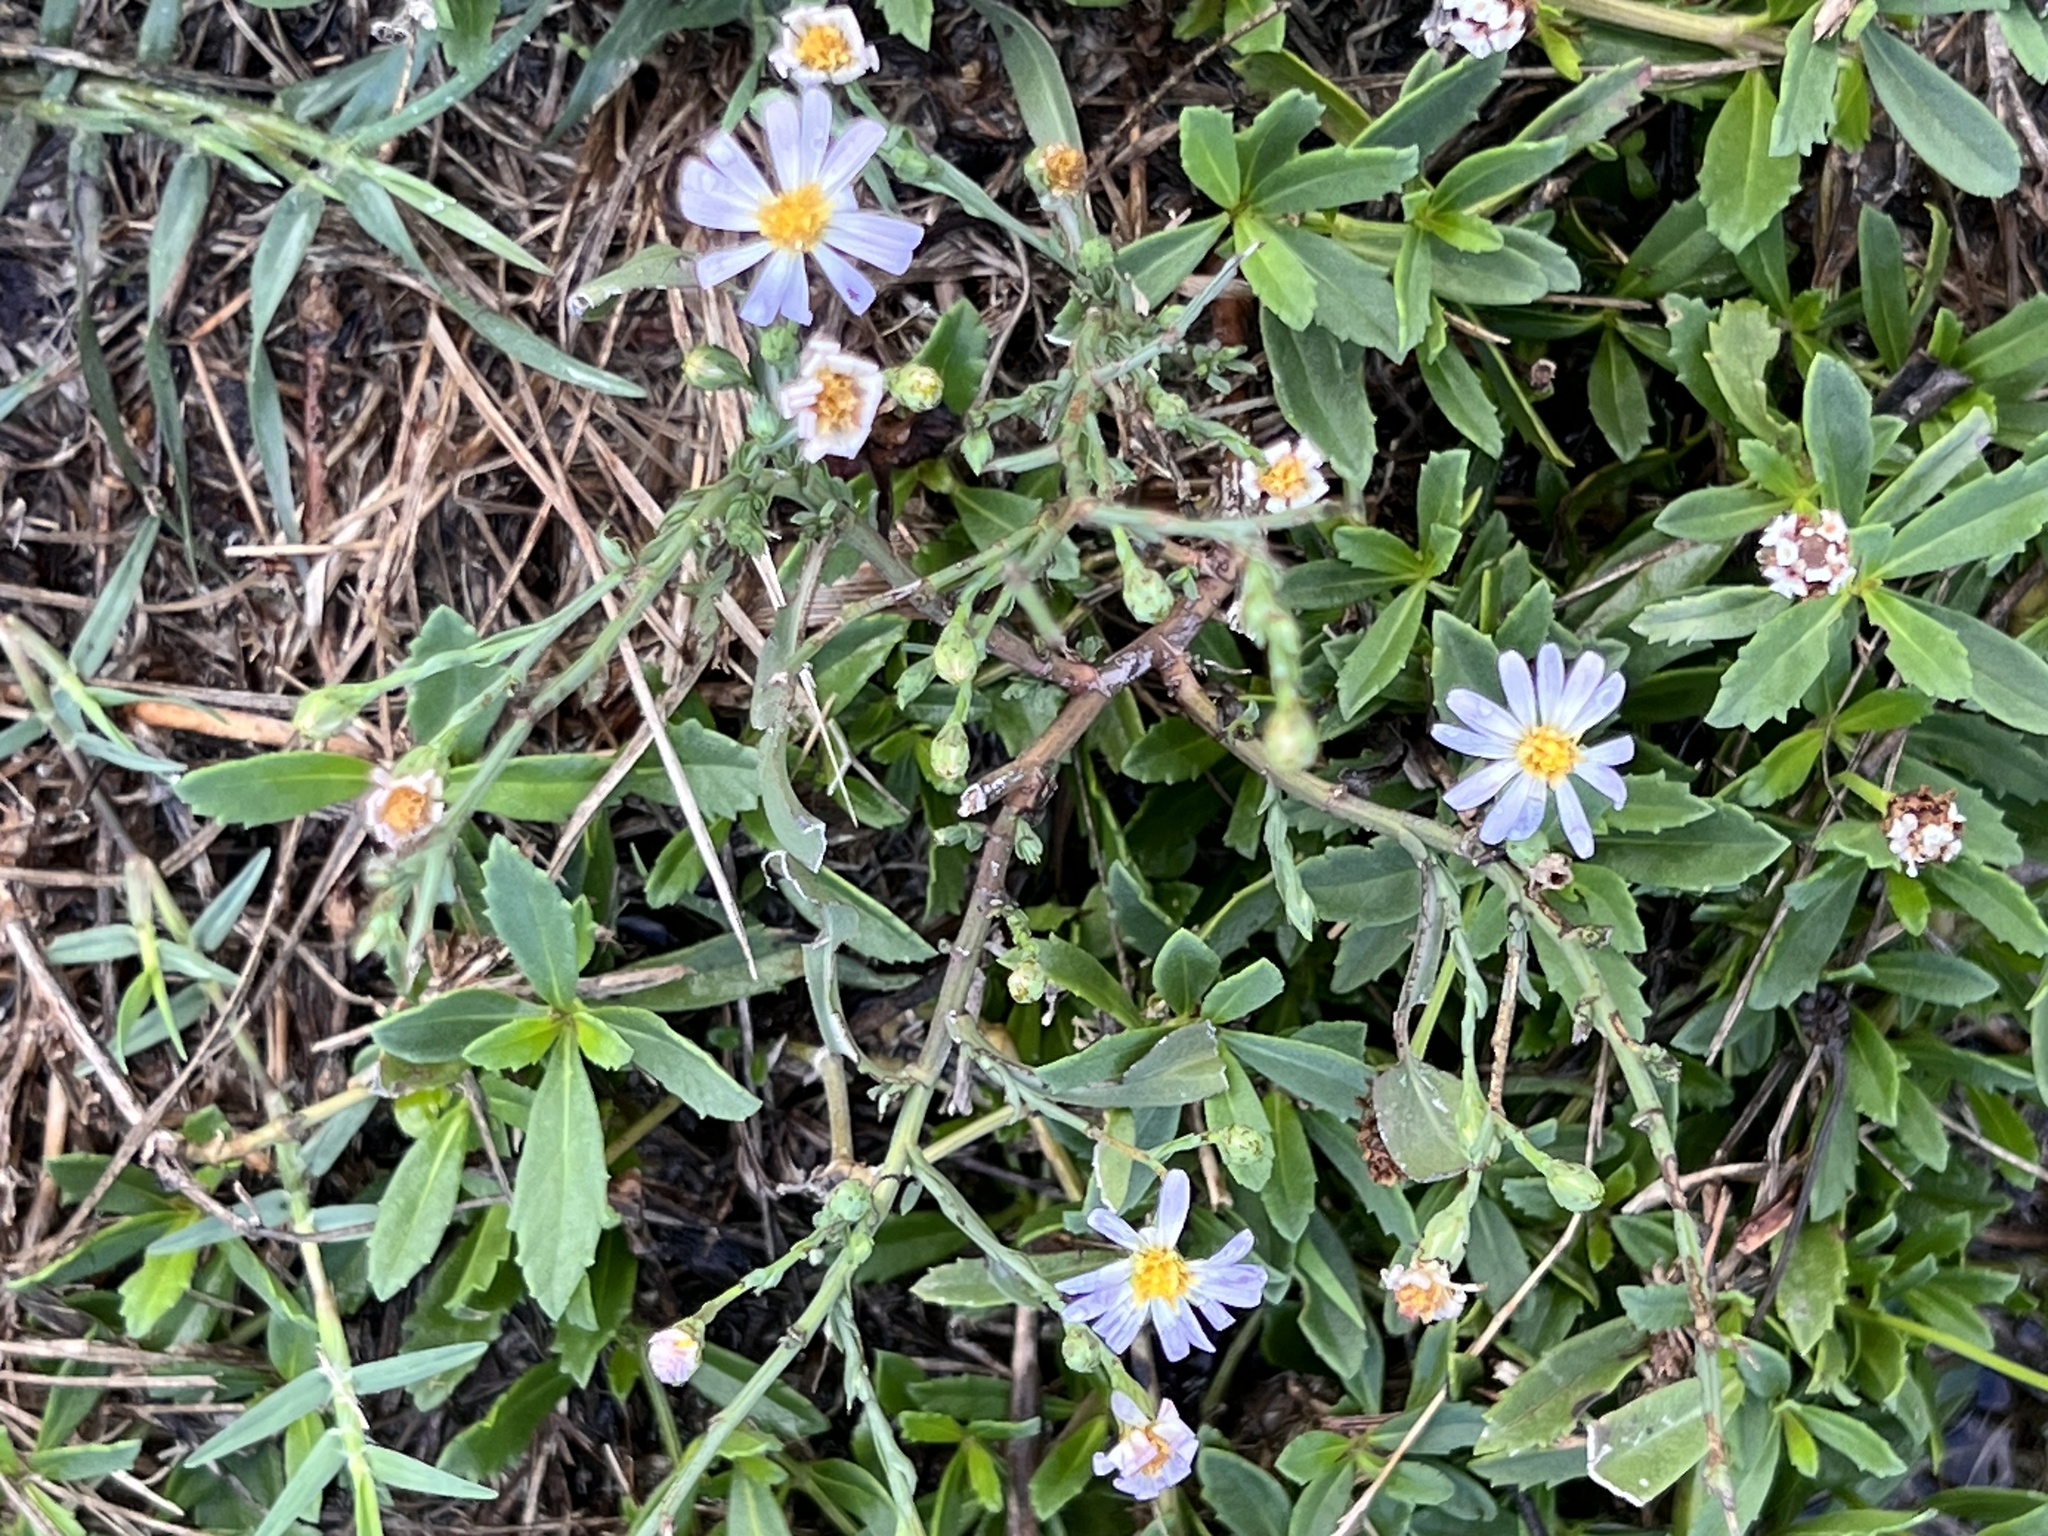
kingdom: Plantae
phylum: Tracheophyta
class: Magnoliopsida
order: Asterales
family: Asteraceae
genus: Symphyotrichum
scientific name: Symphyotrichum divaricatum
